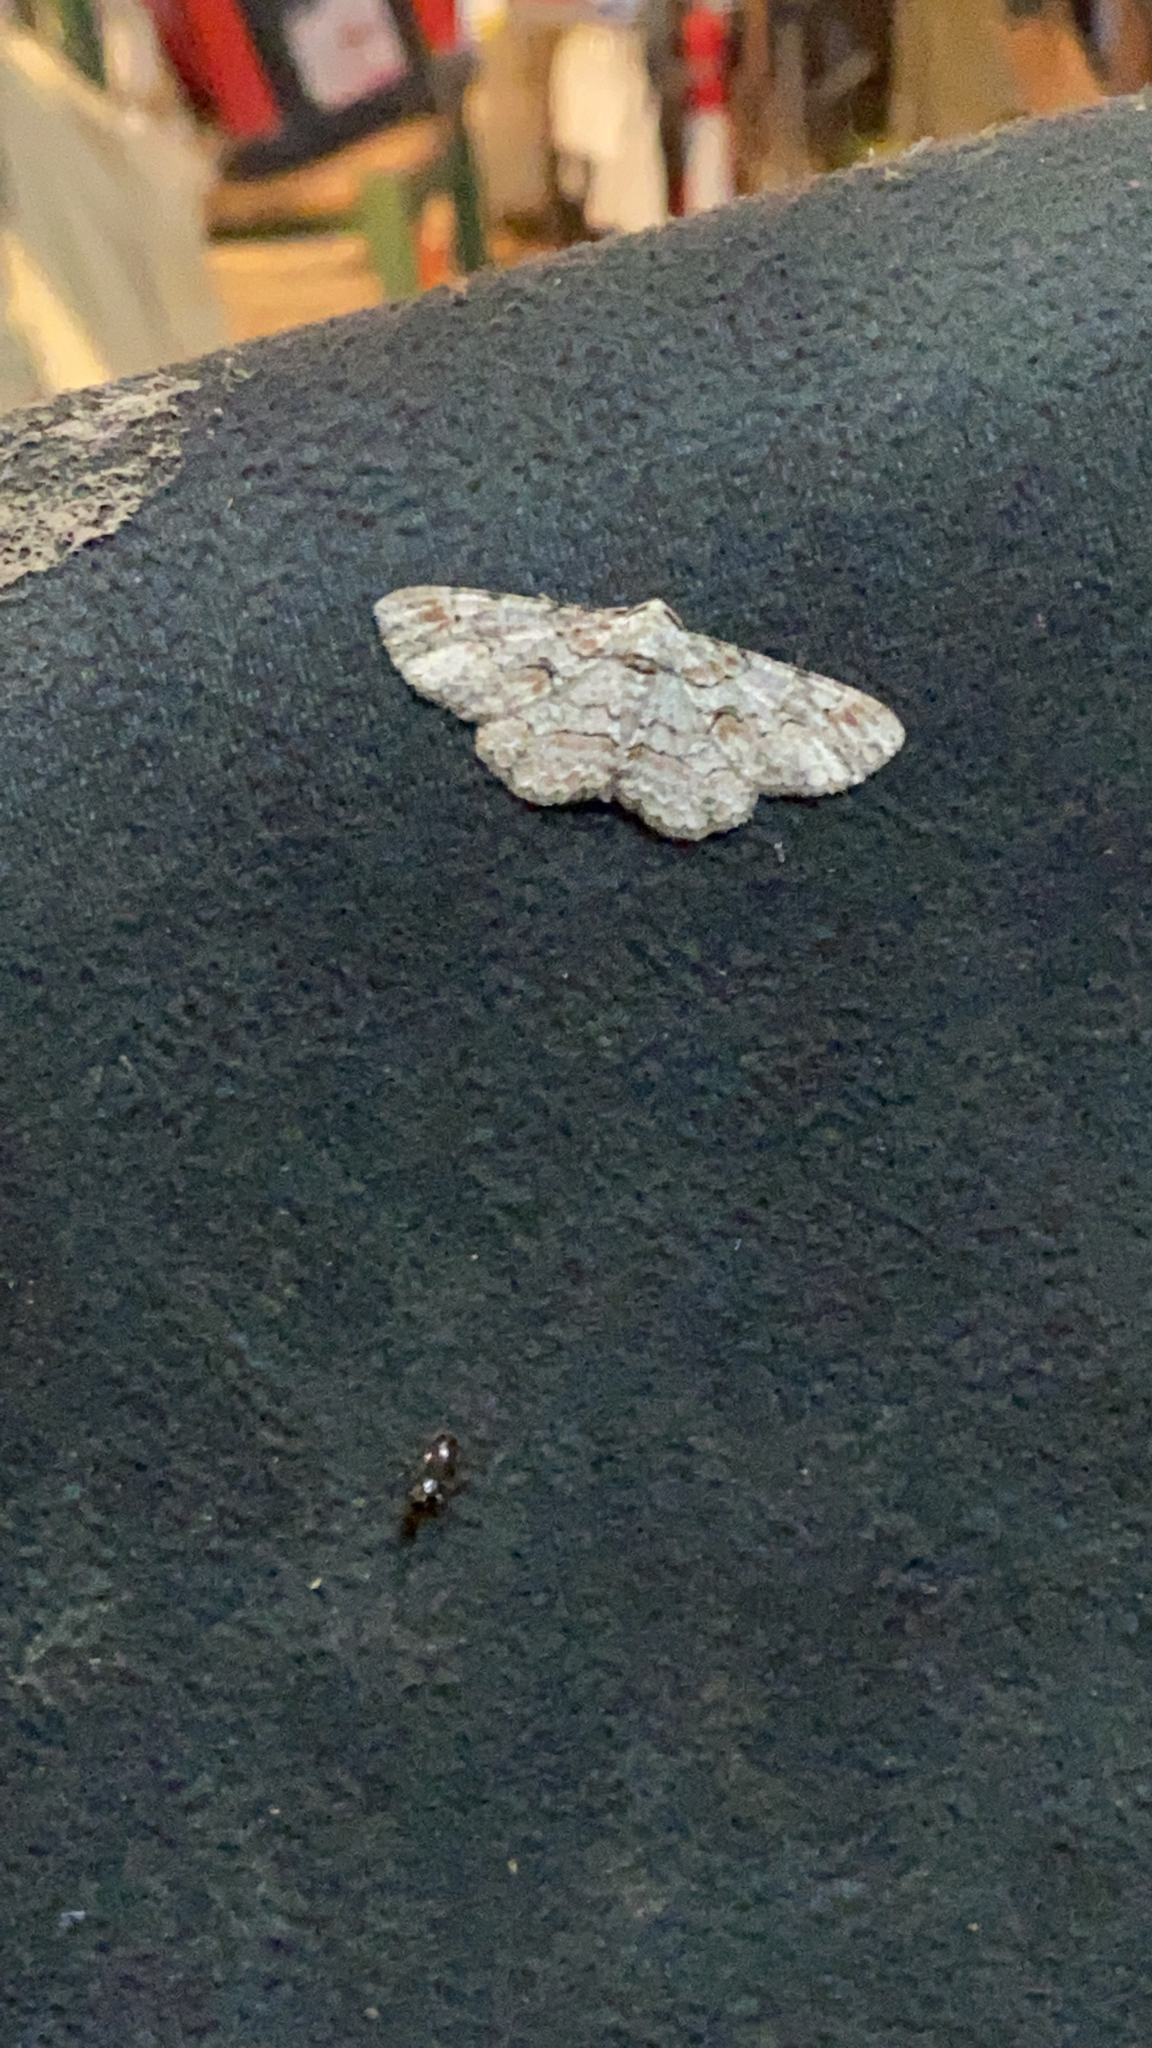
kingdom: Animalia
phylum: Arthropoda
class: Insecta
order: Lepidoptera
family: Geometridae
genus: Iridopsis
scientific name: Iridopsis defectaria
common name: Brown-shaded gray
